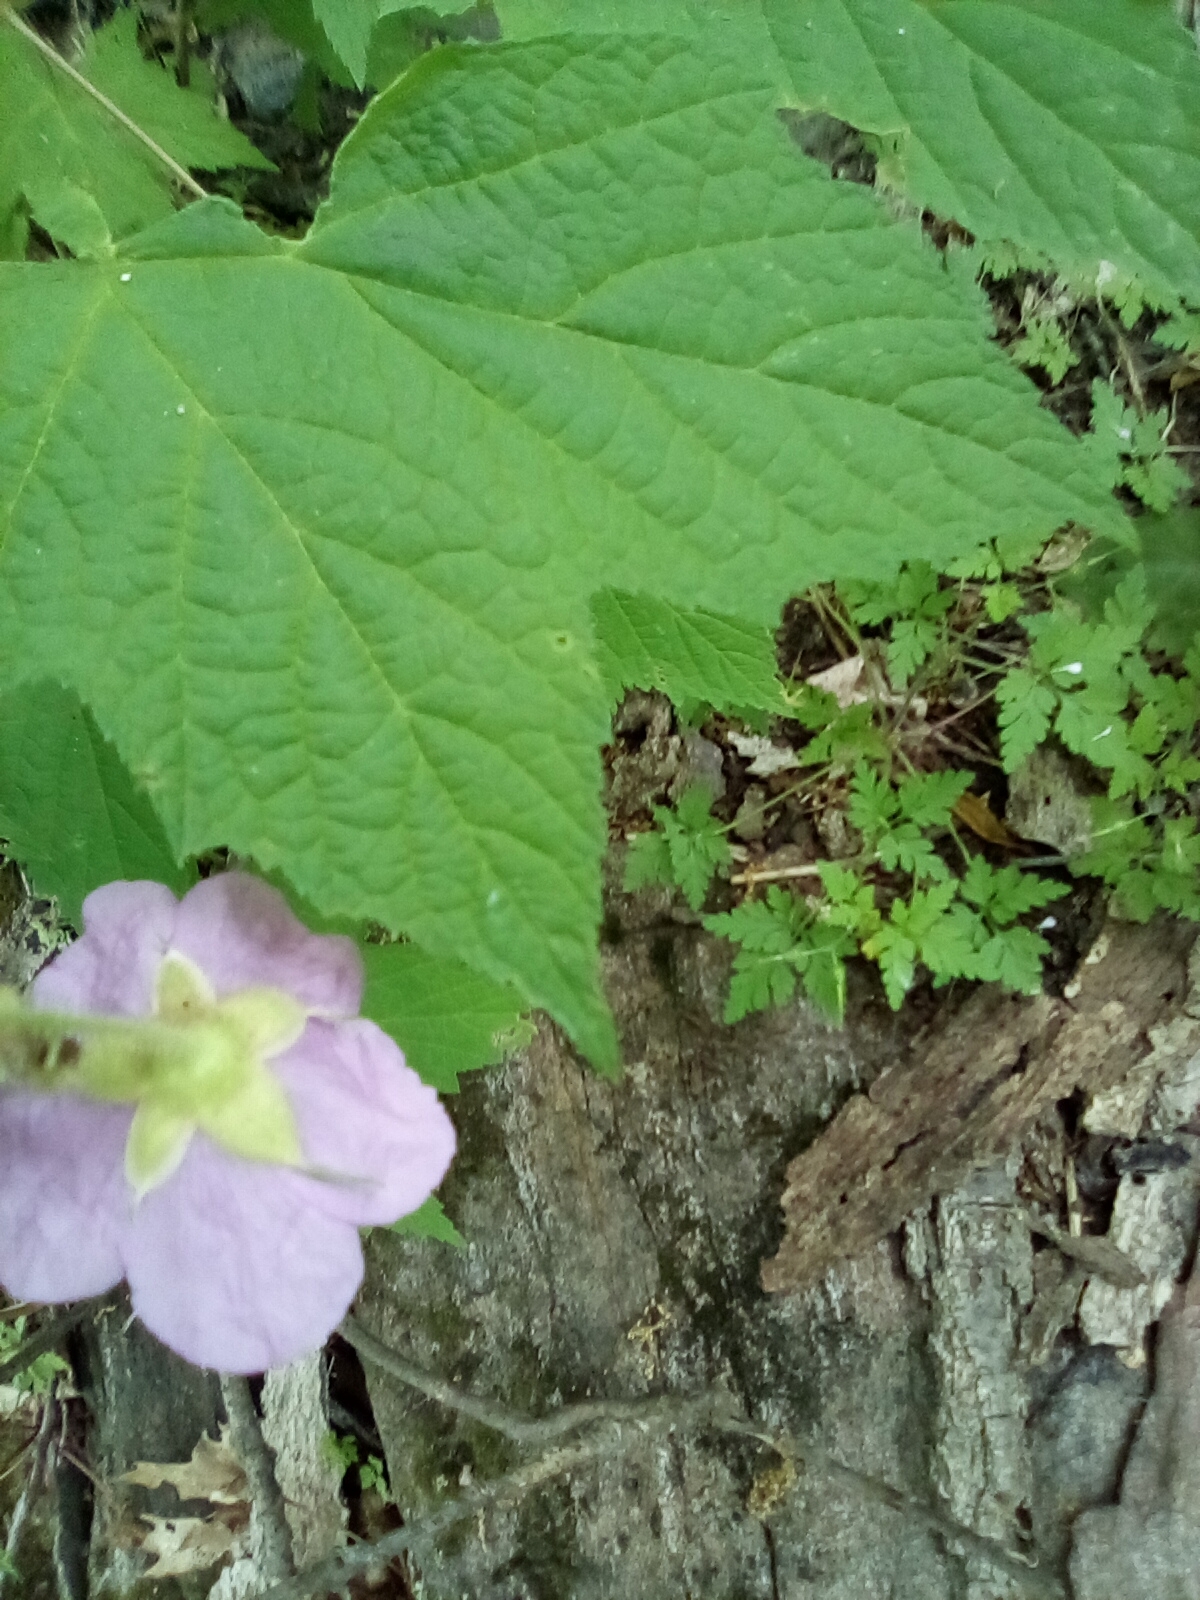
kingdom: Plantae
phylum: Tracheophyta
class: Magnoliopsida
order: Rosales
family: Rosaceae
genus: Rubus
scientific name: Rubus odoratus
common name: Purple-flowered raspberry
